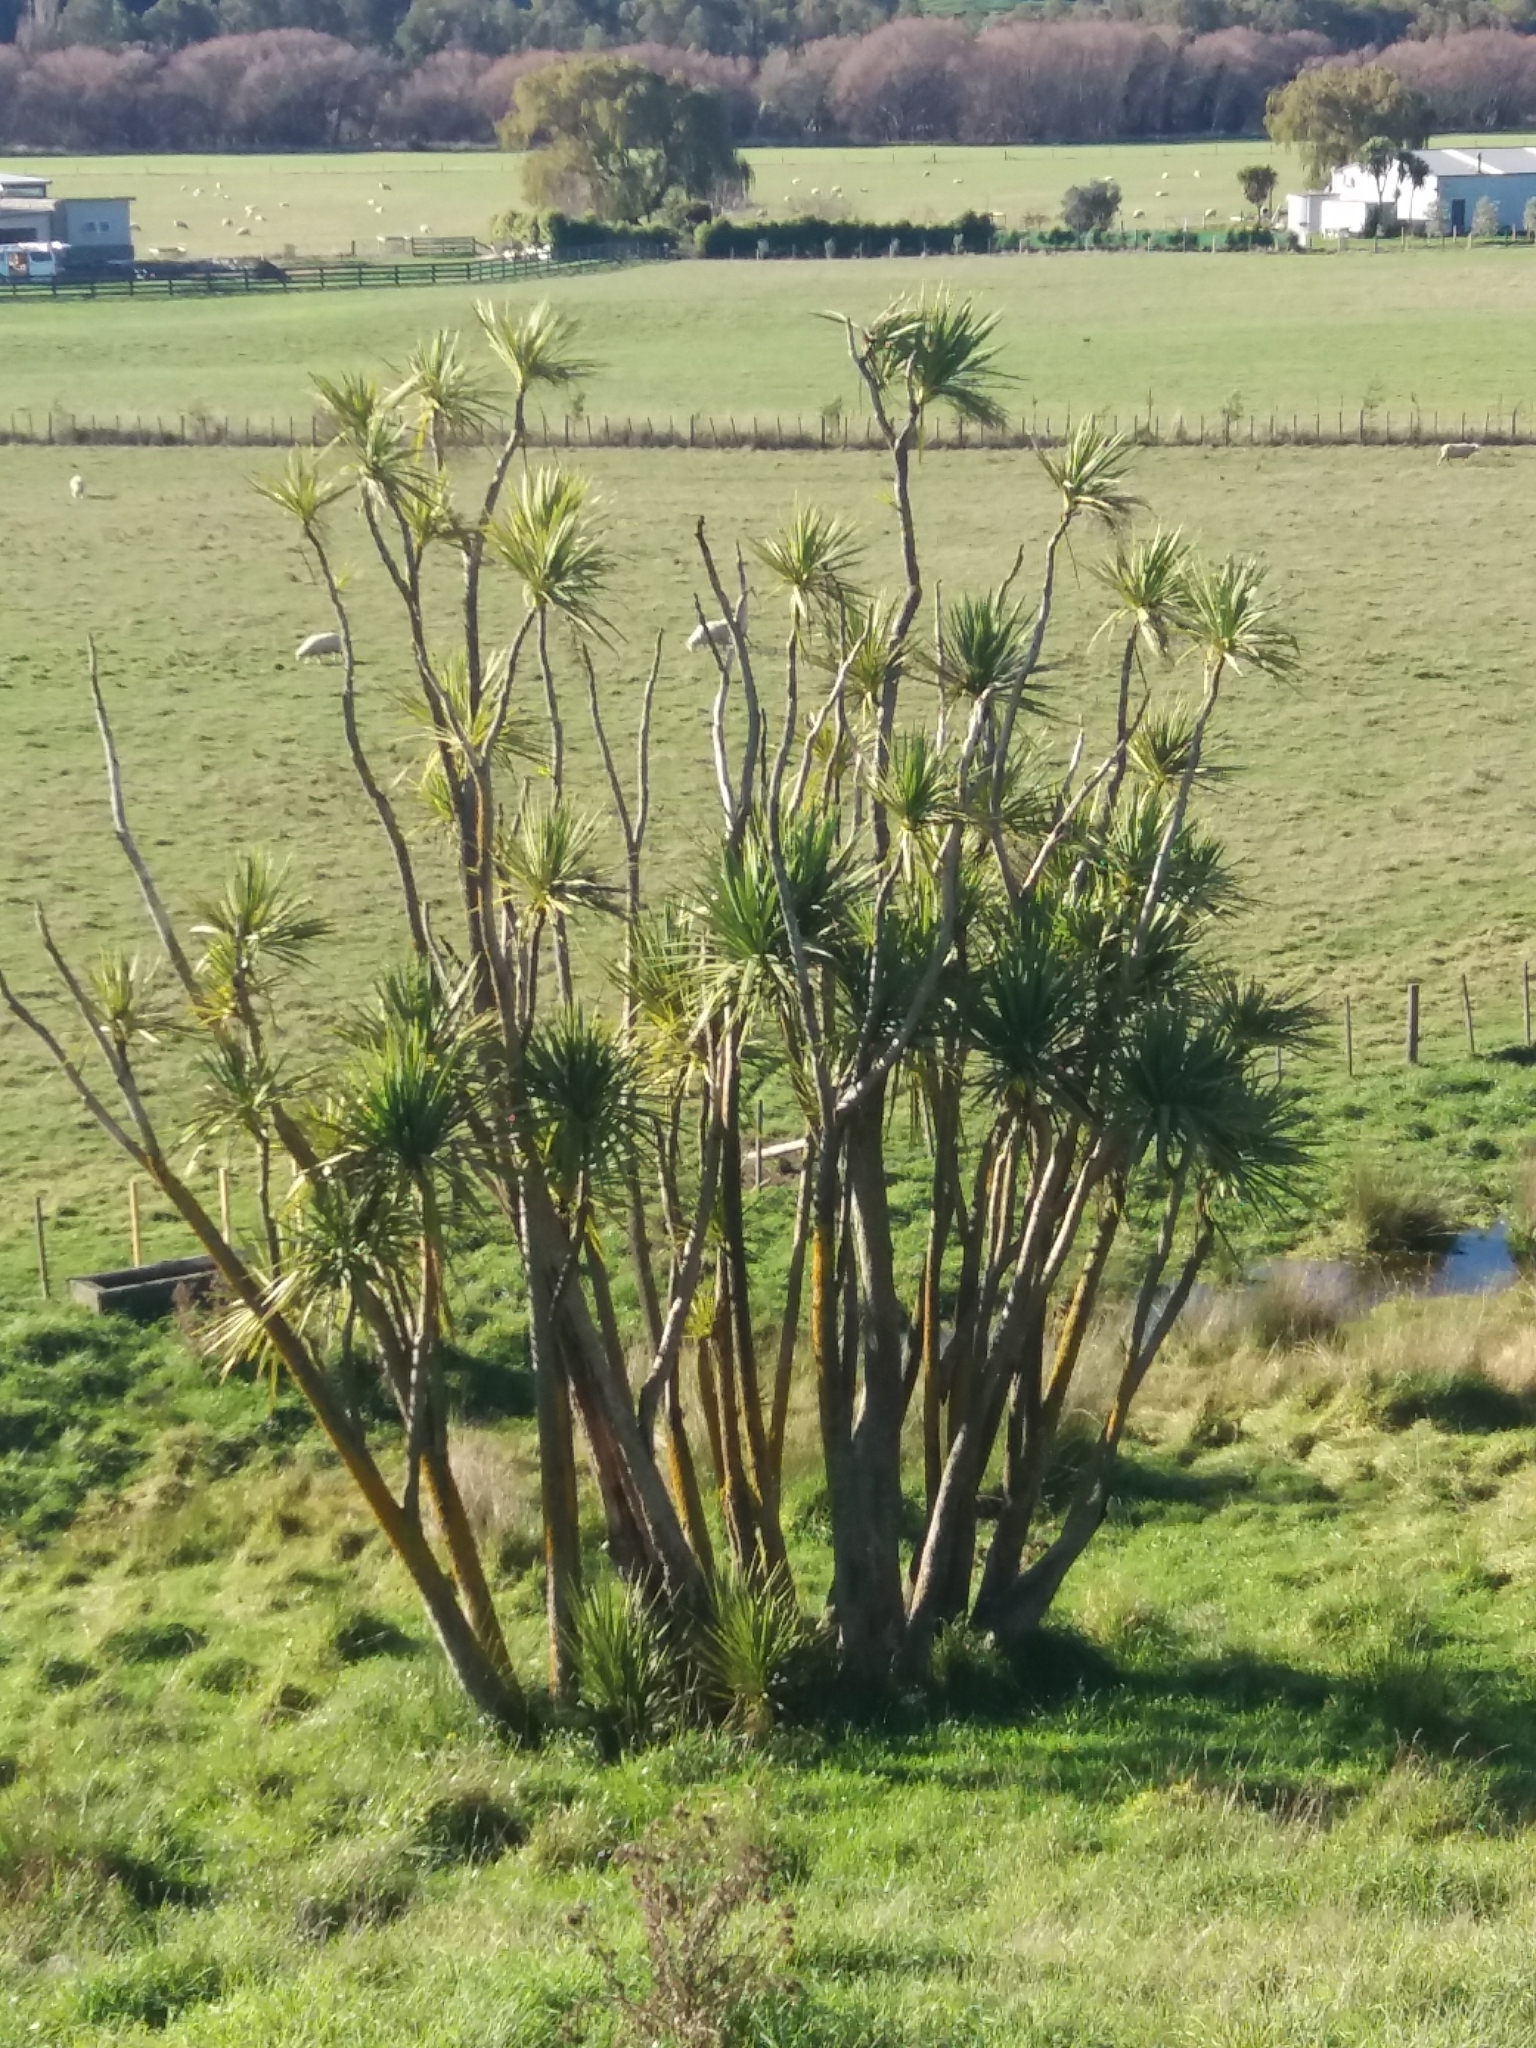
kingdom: Plantae
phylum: Tracheophyta
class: Liliopsida
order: Asparagales
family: Asparagaceae
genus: Cordyline
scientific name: Cordyline australis
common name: Cabbage-palm
